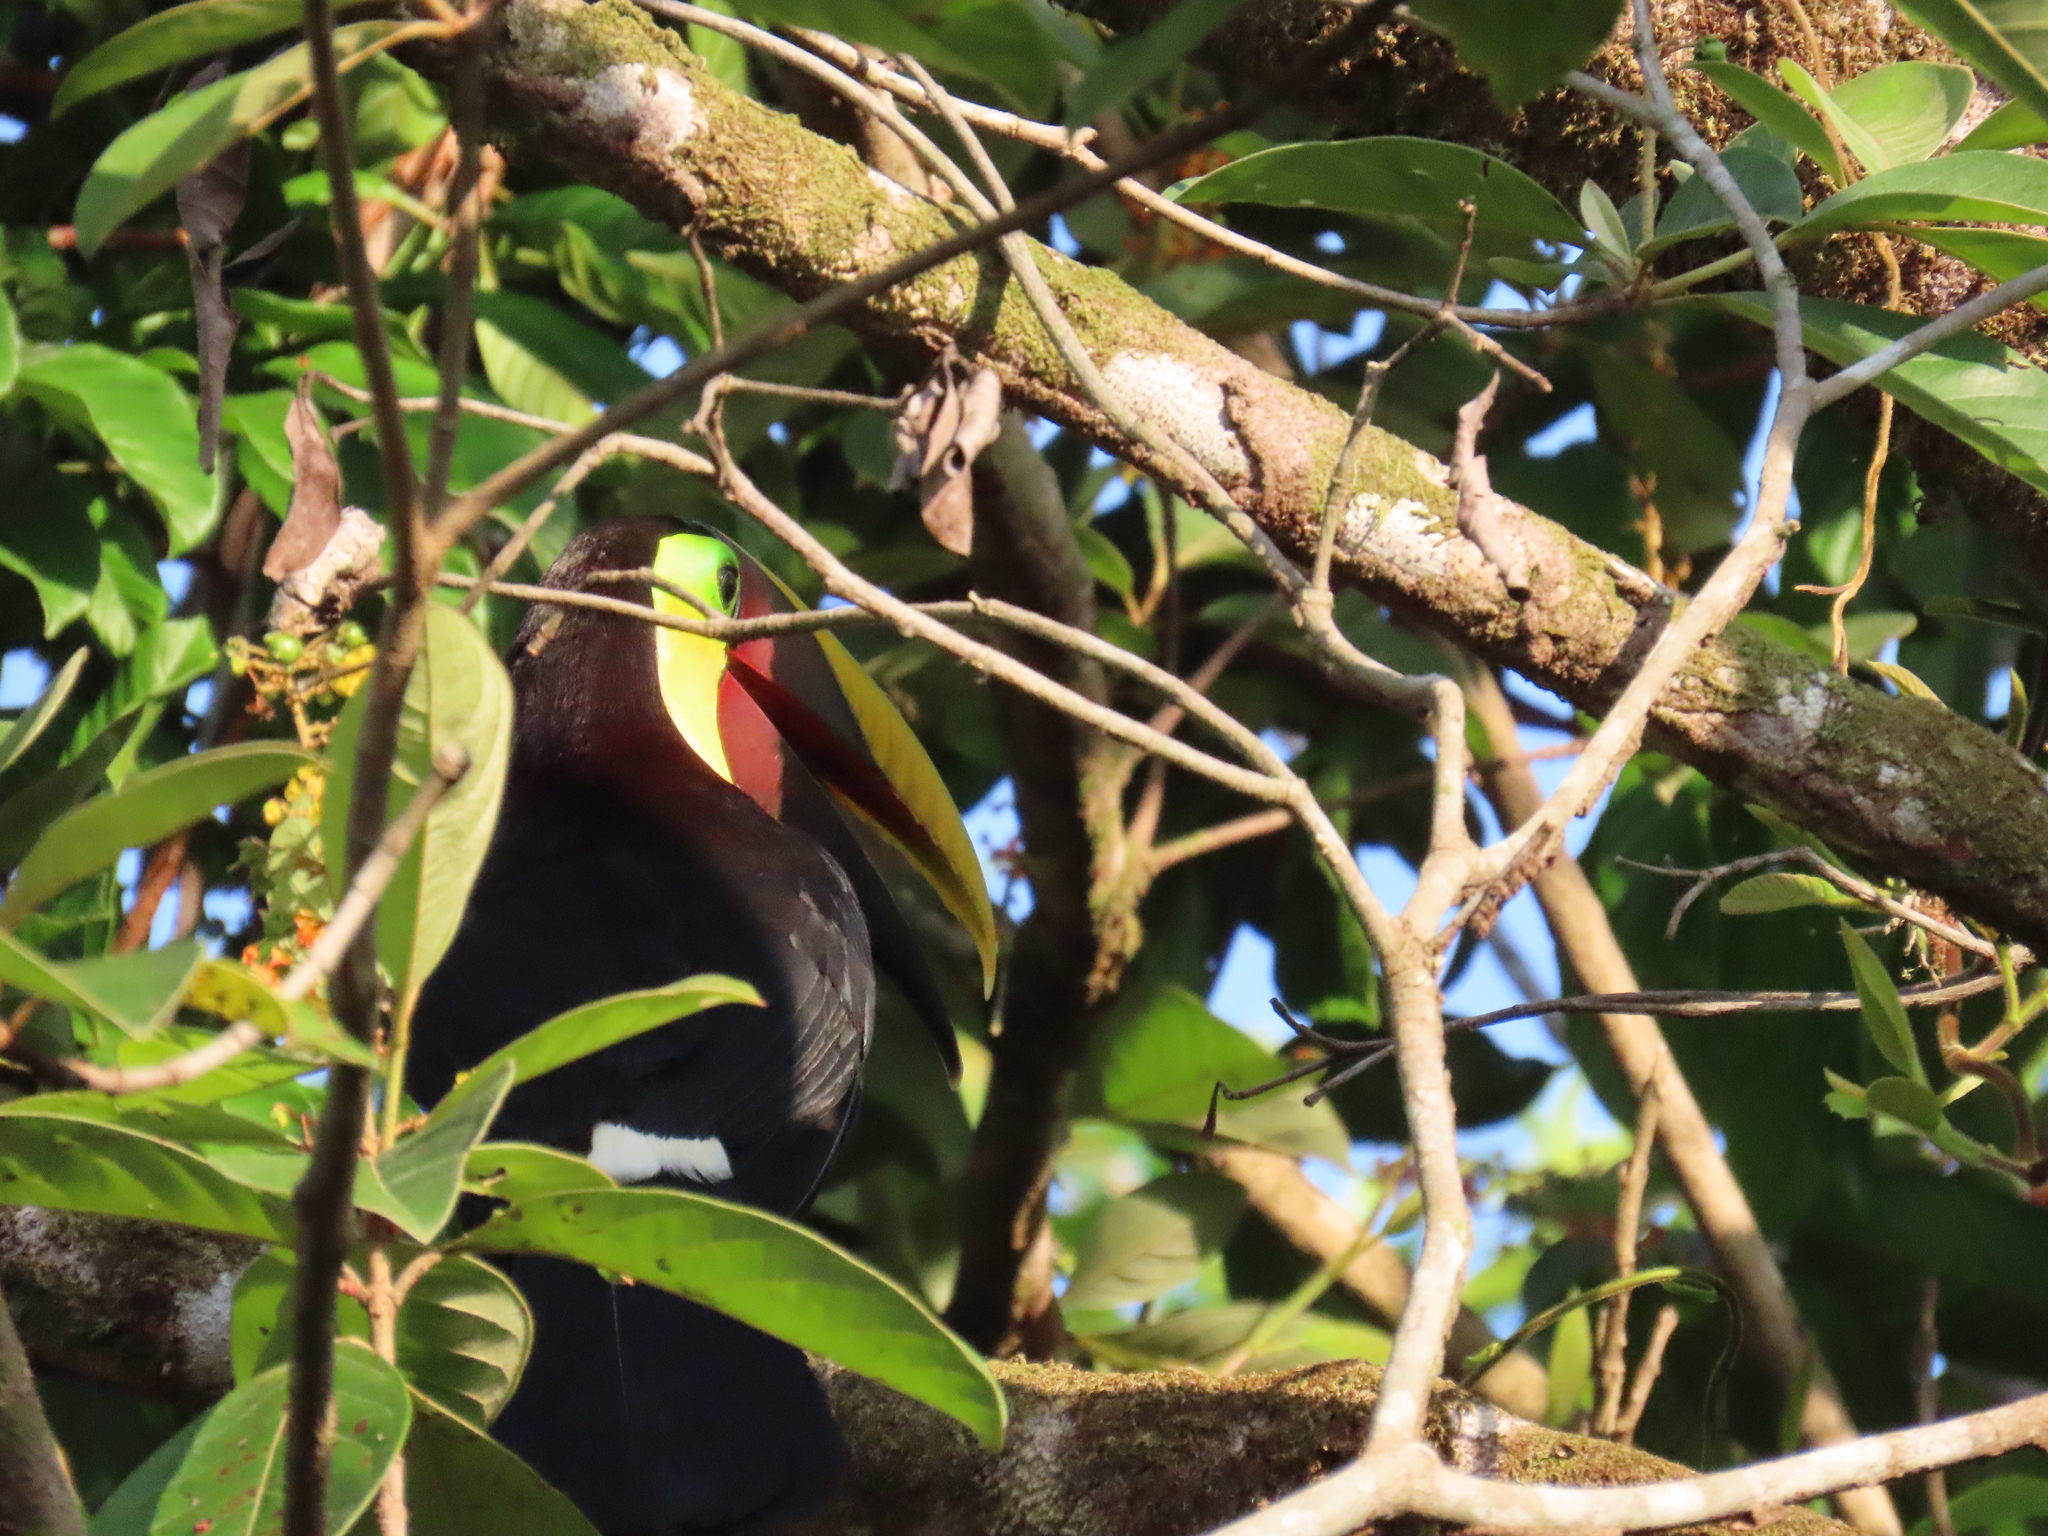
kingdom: Animalia
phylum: Chordata
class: Aves
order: Piciformes
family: Ramphastidae
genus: Ramphastos
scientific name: Ramphastos ambiguus
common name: Yellow-throated toucan
